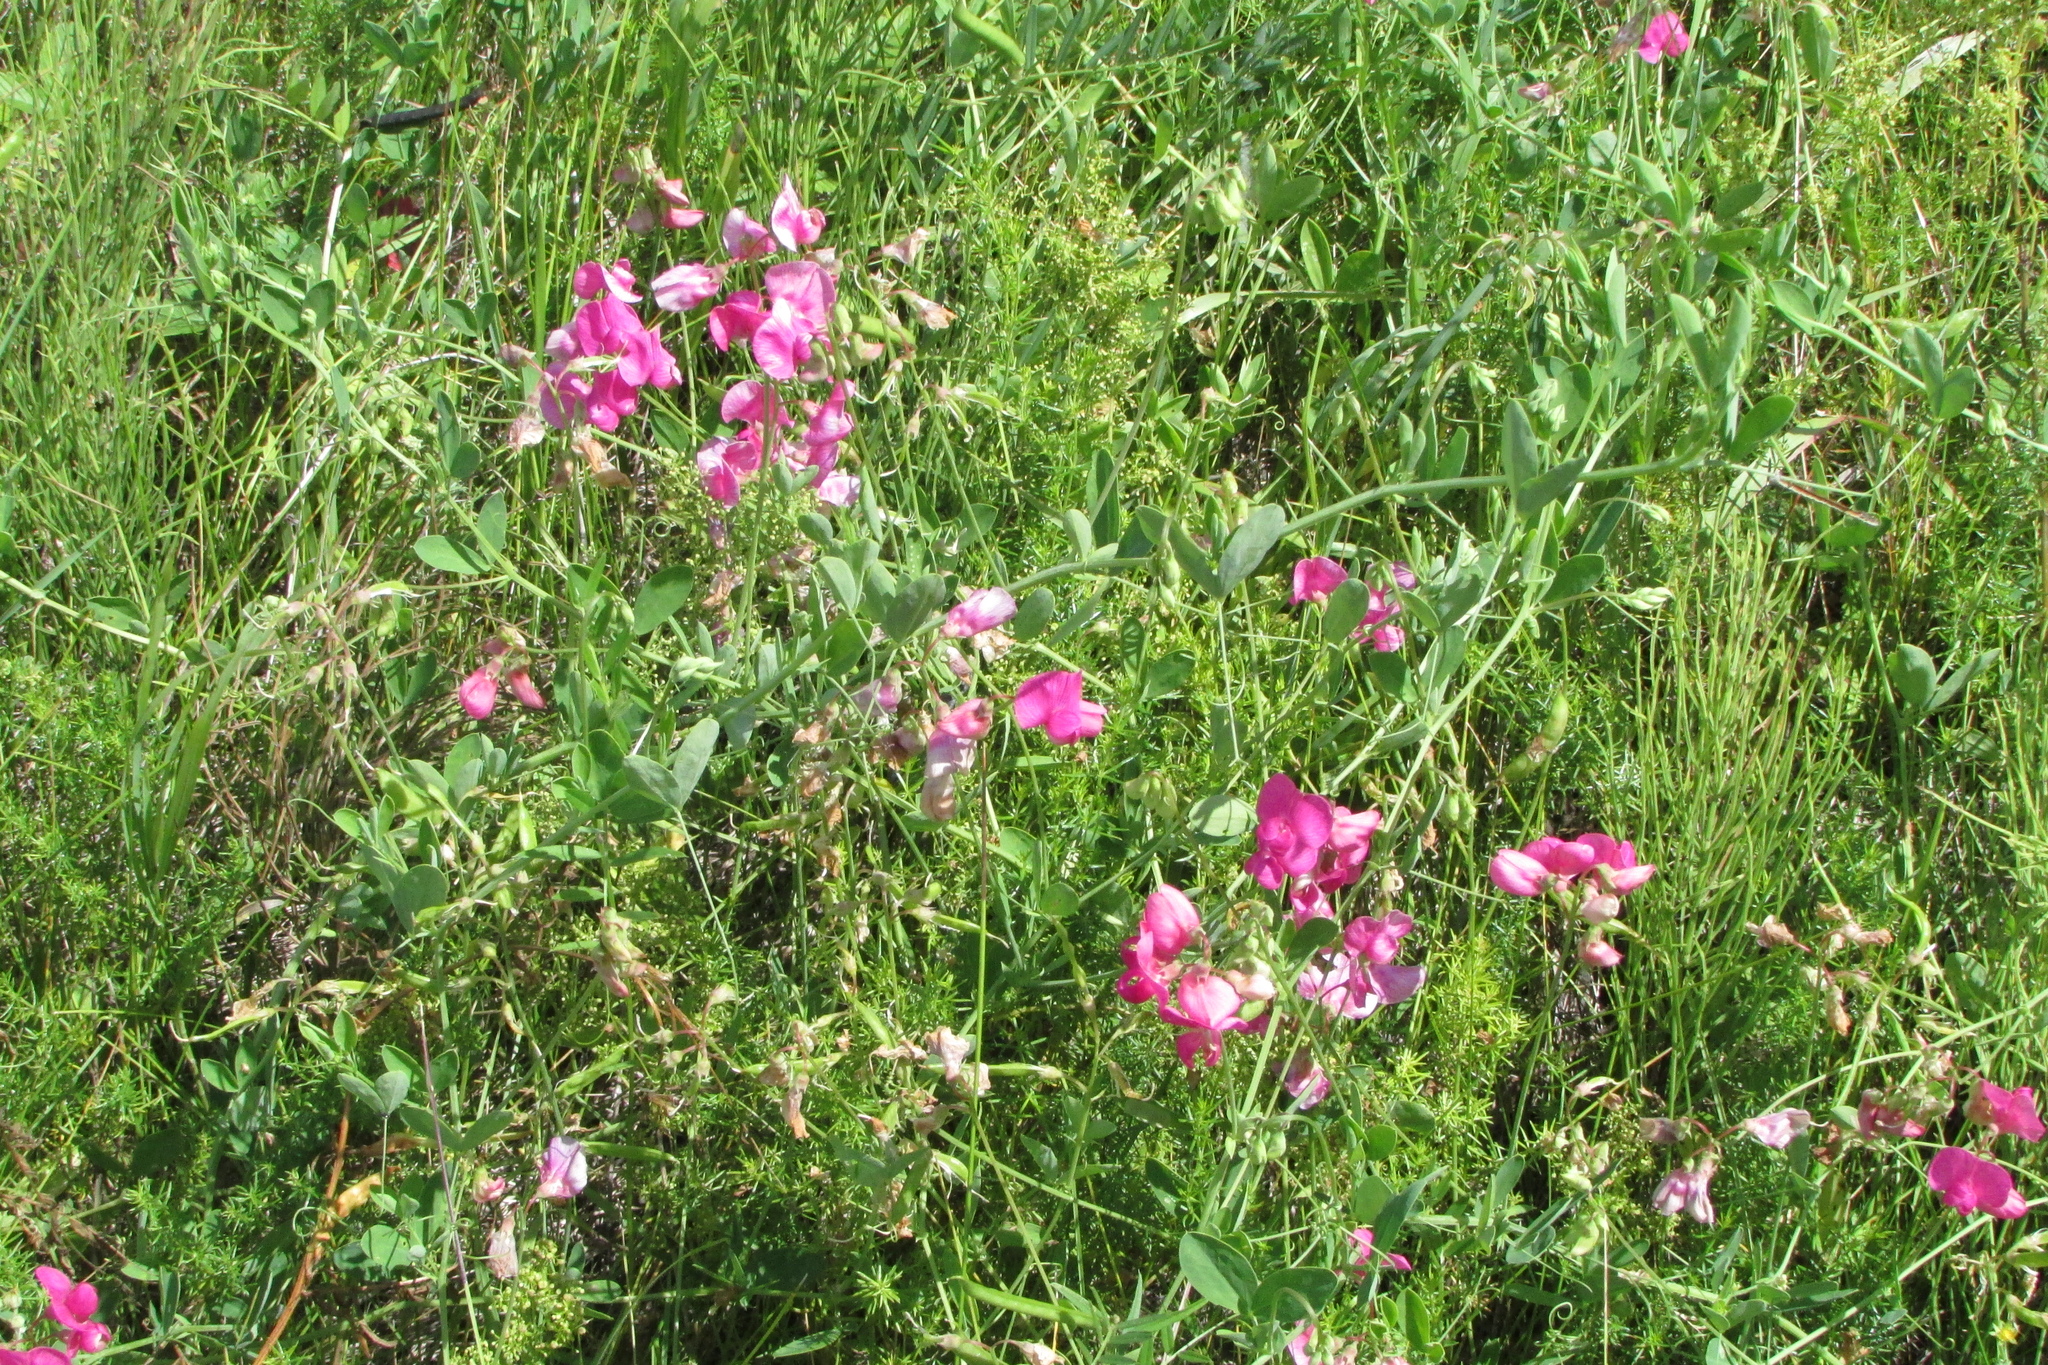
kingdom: Plantae
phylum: Tracheophyta
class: Magnoliopsida
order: Fabales
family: Fabaceae
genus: Lathyrus
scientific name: Lathyrus tuberosus
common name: Tuberous pea
